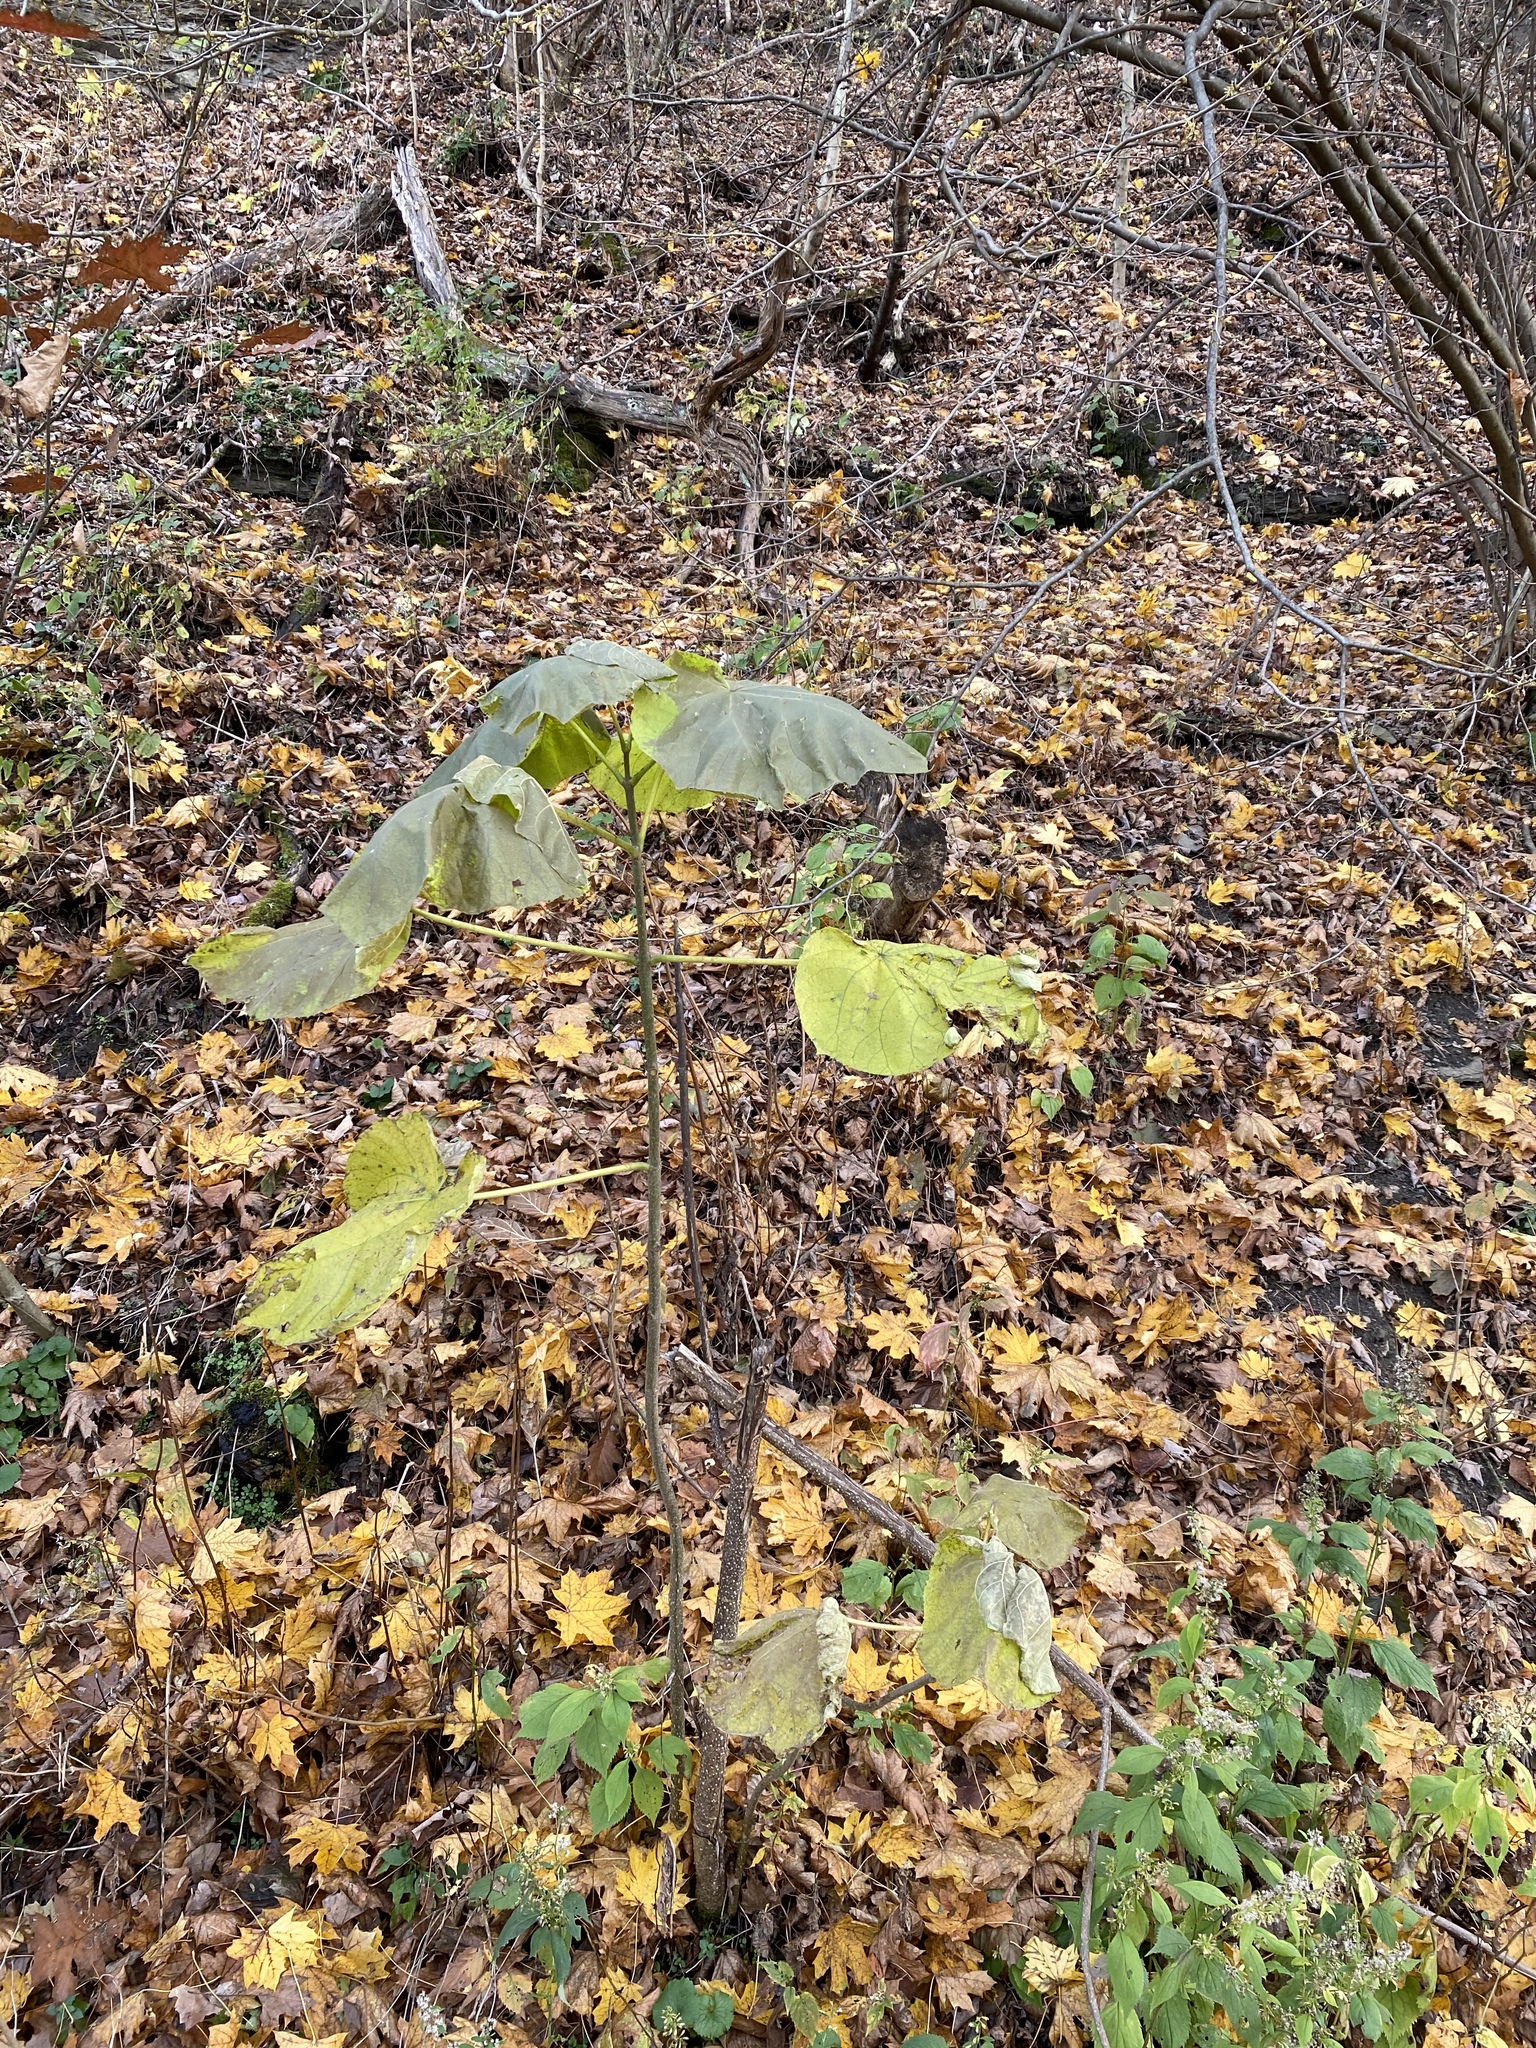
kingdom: Plantae
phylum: Tracheophyta
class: Magnoliopsida
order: Lamiales
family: Paulowniaceae
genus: Paulownia
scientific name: Paulownia tomentosa
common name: Foxglove-tree
